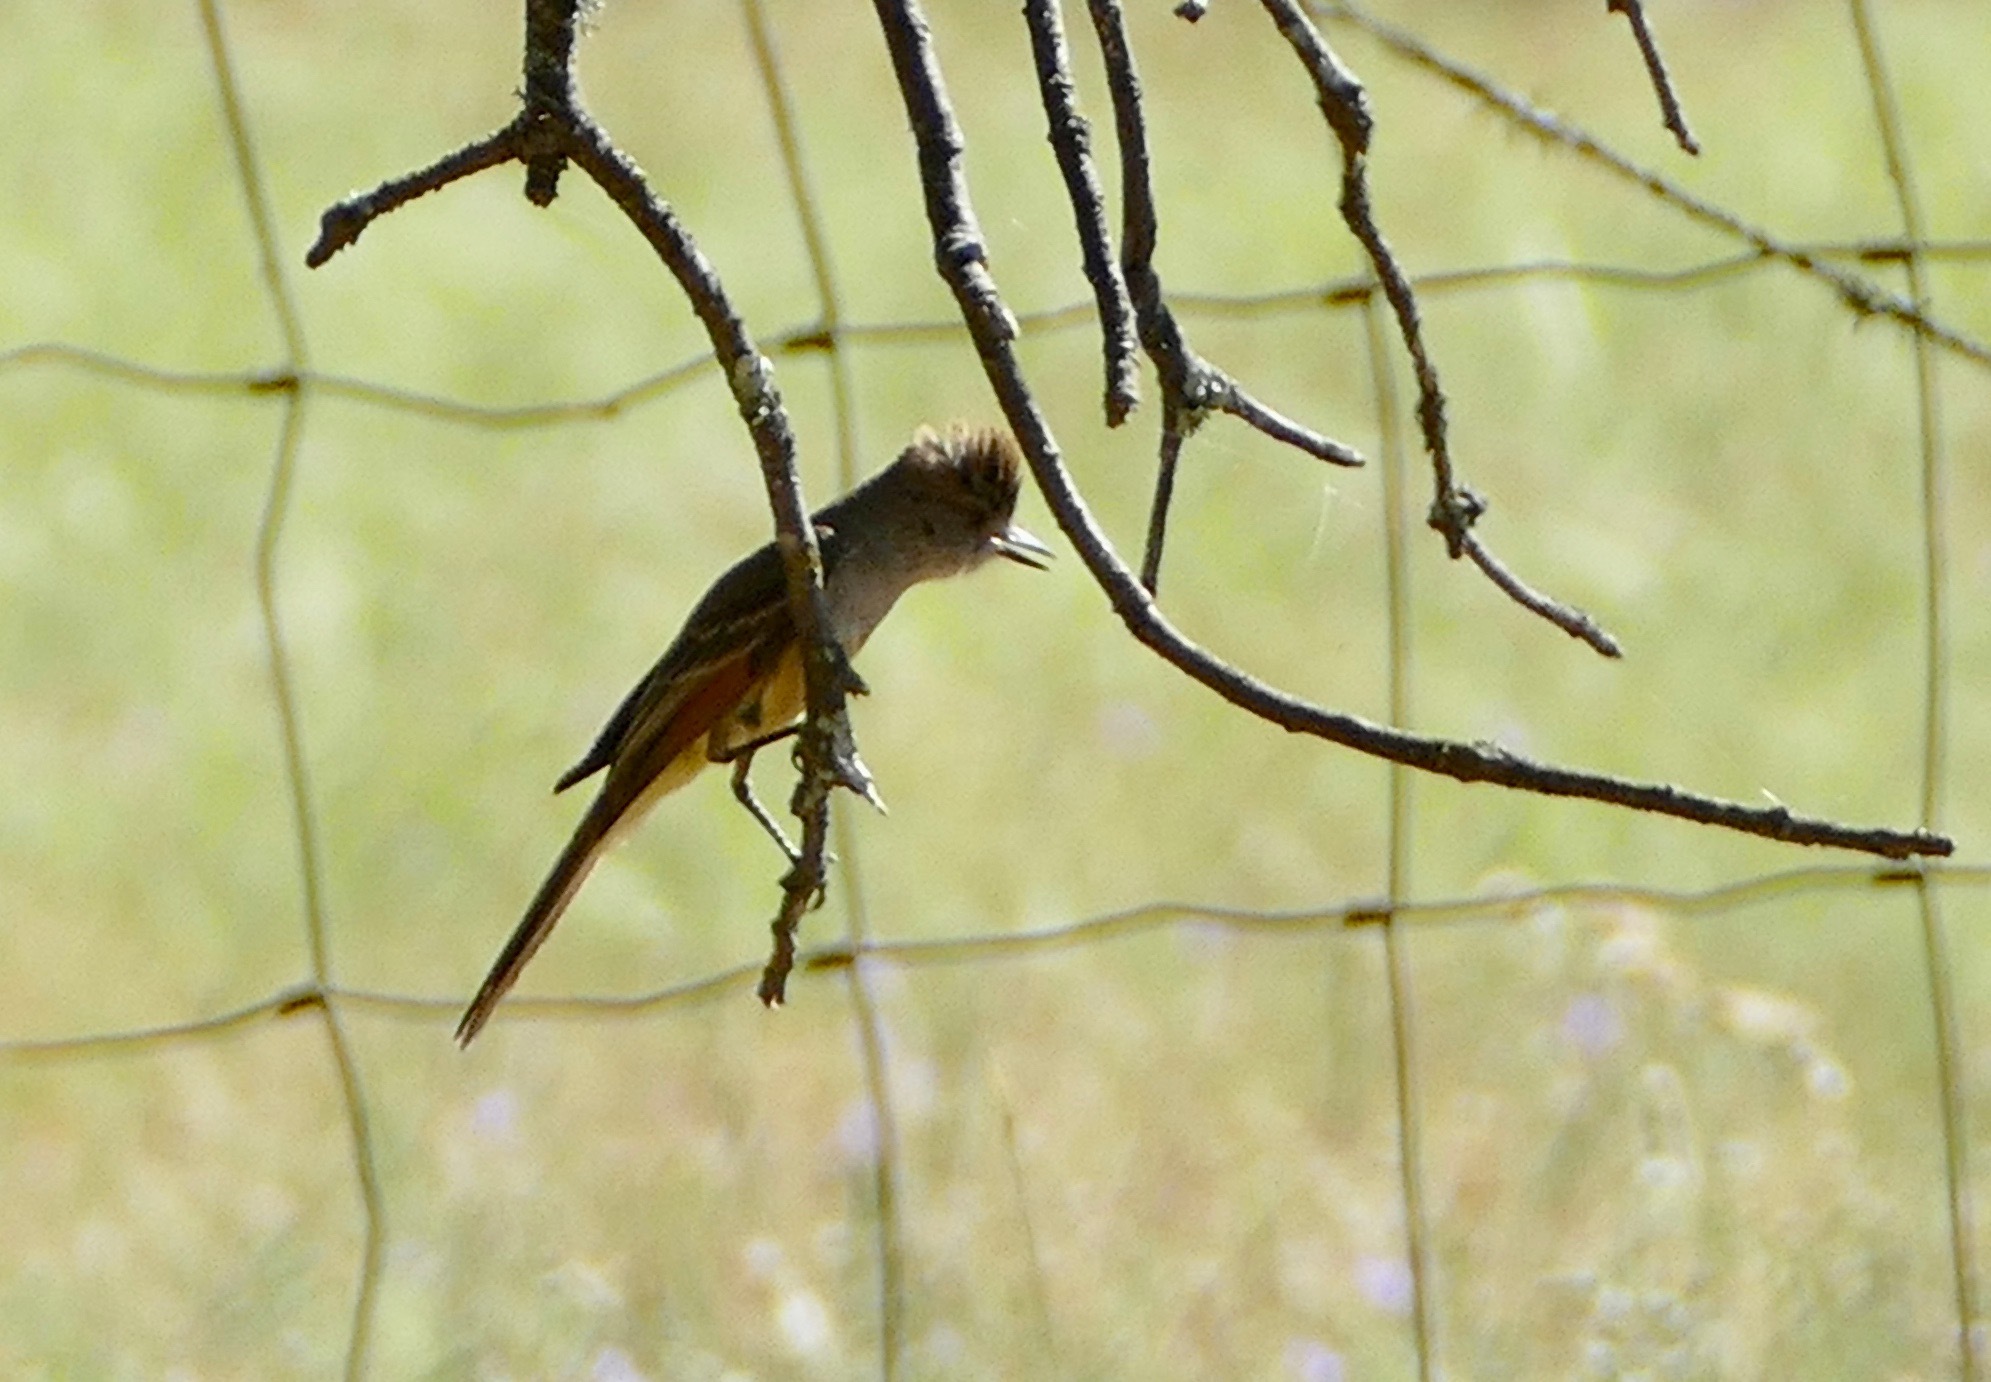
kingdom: Animalia
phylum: Chordata
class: Aves
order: Passeriformes
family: Tyrannidae
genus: Myiarchus
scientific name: Myiarchus cinerascens
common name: Ash-throated flycatcher
